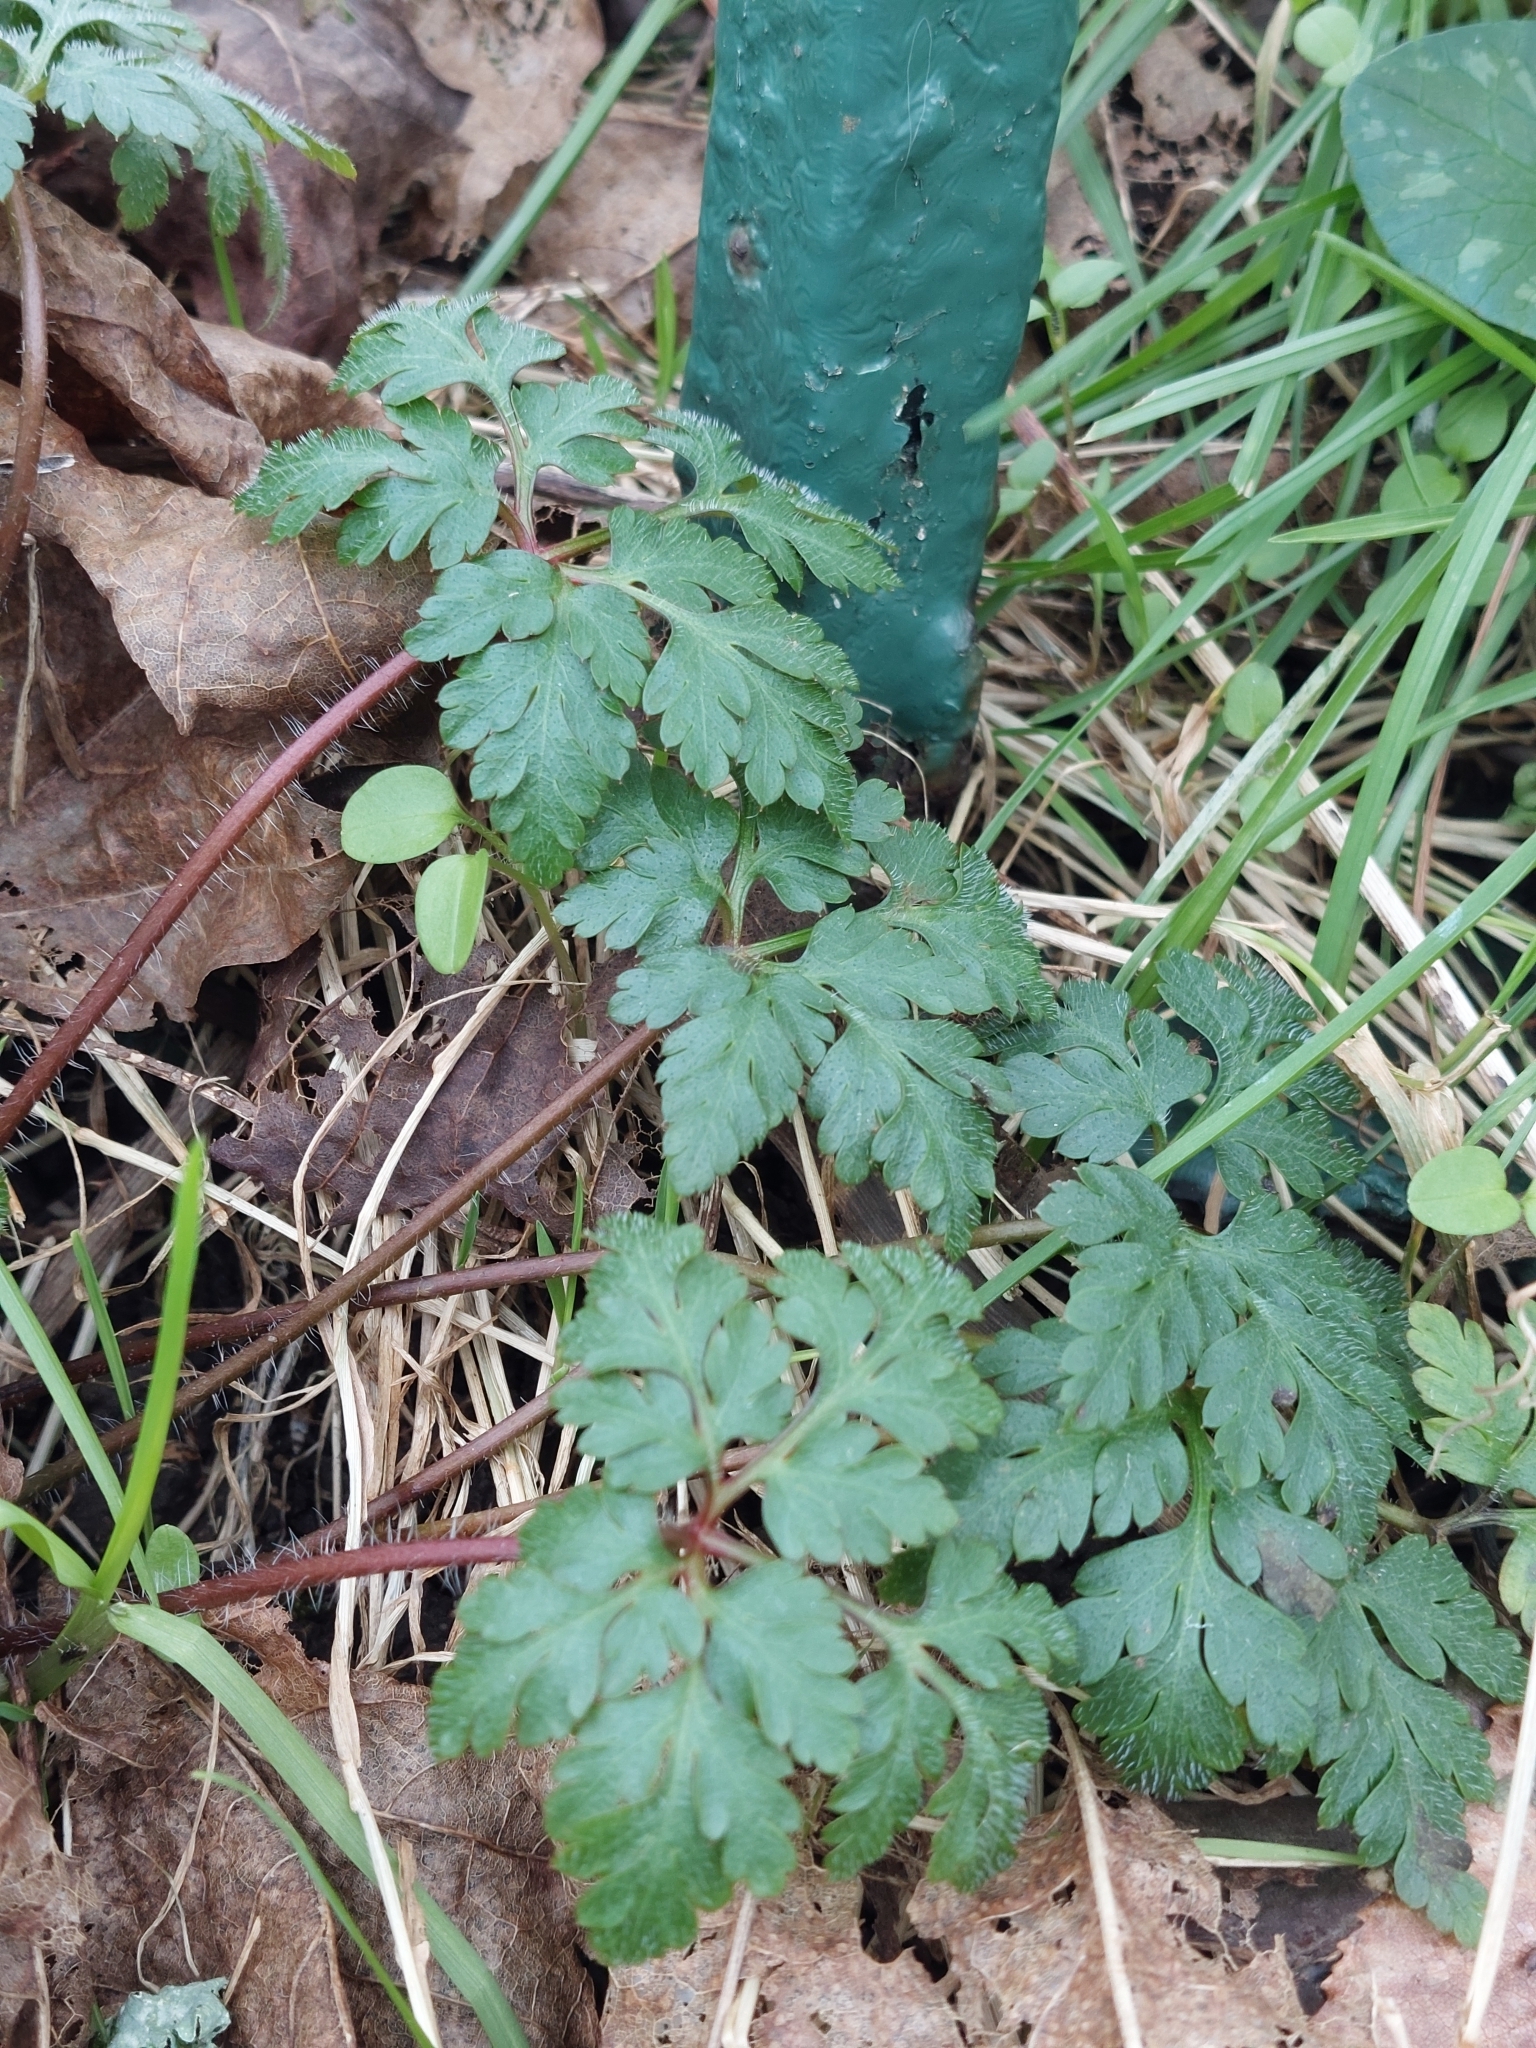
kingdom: Plantae
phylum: Tracheophyta
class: Magnoliopsida
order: Geraniales
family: Geraniaceae
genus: Geranium
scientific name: Geranium robertianum
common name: Herb-robert
